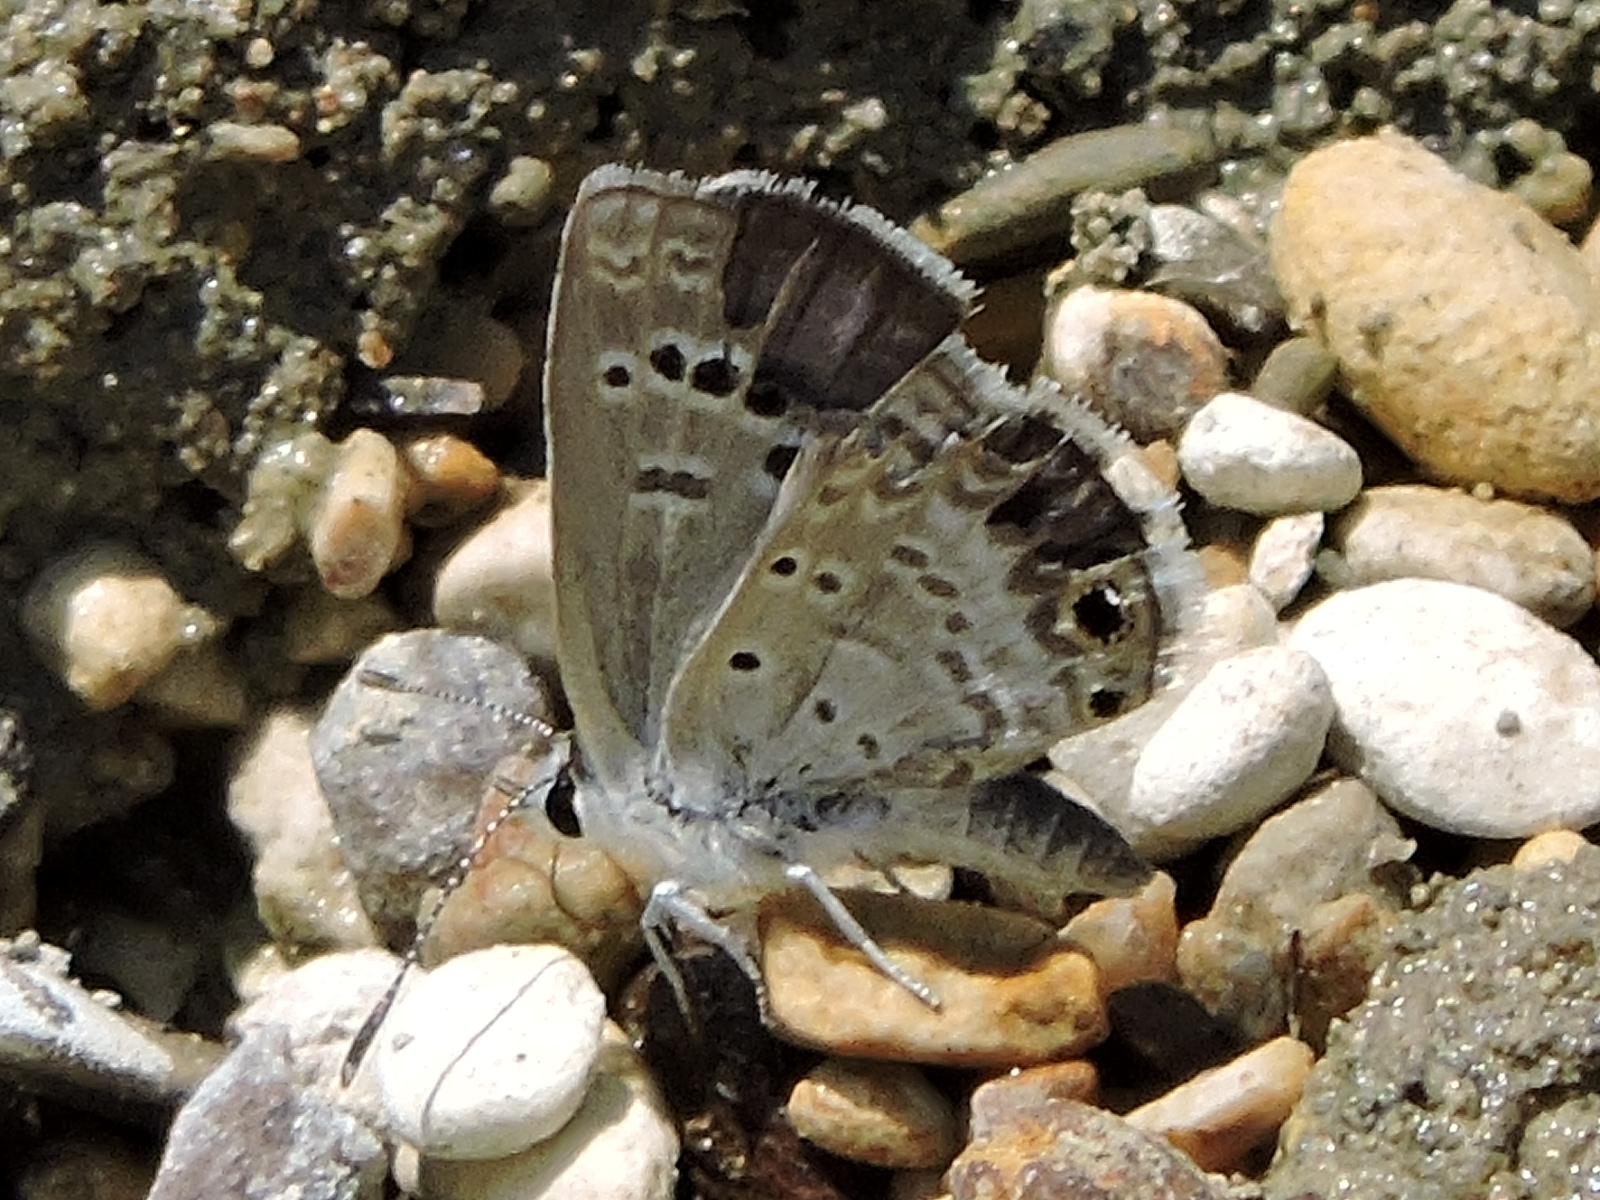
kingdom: Animalia
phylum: Arthropoda
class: Insecta
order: Lepidoptera
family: Lycaenidae
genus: Echinargus
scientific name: Echinargus isola
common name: Reakirt's blue
